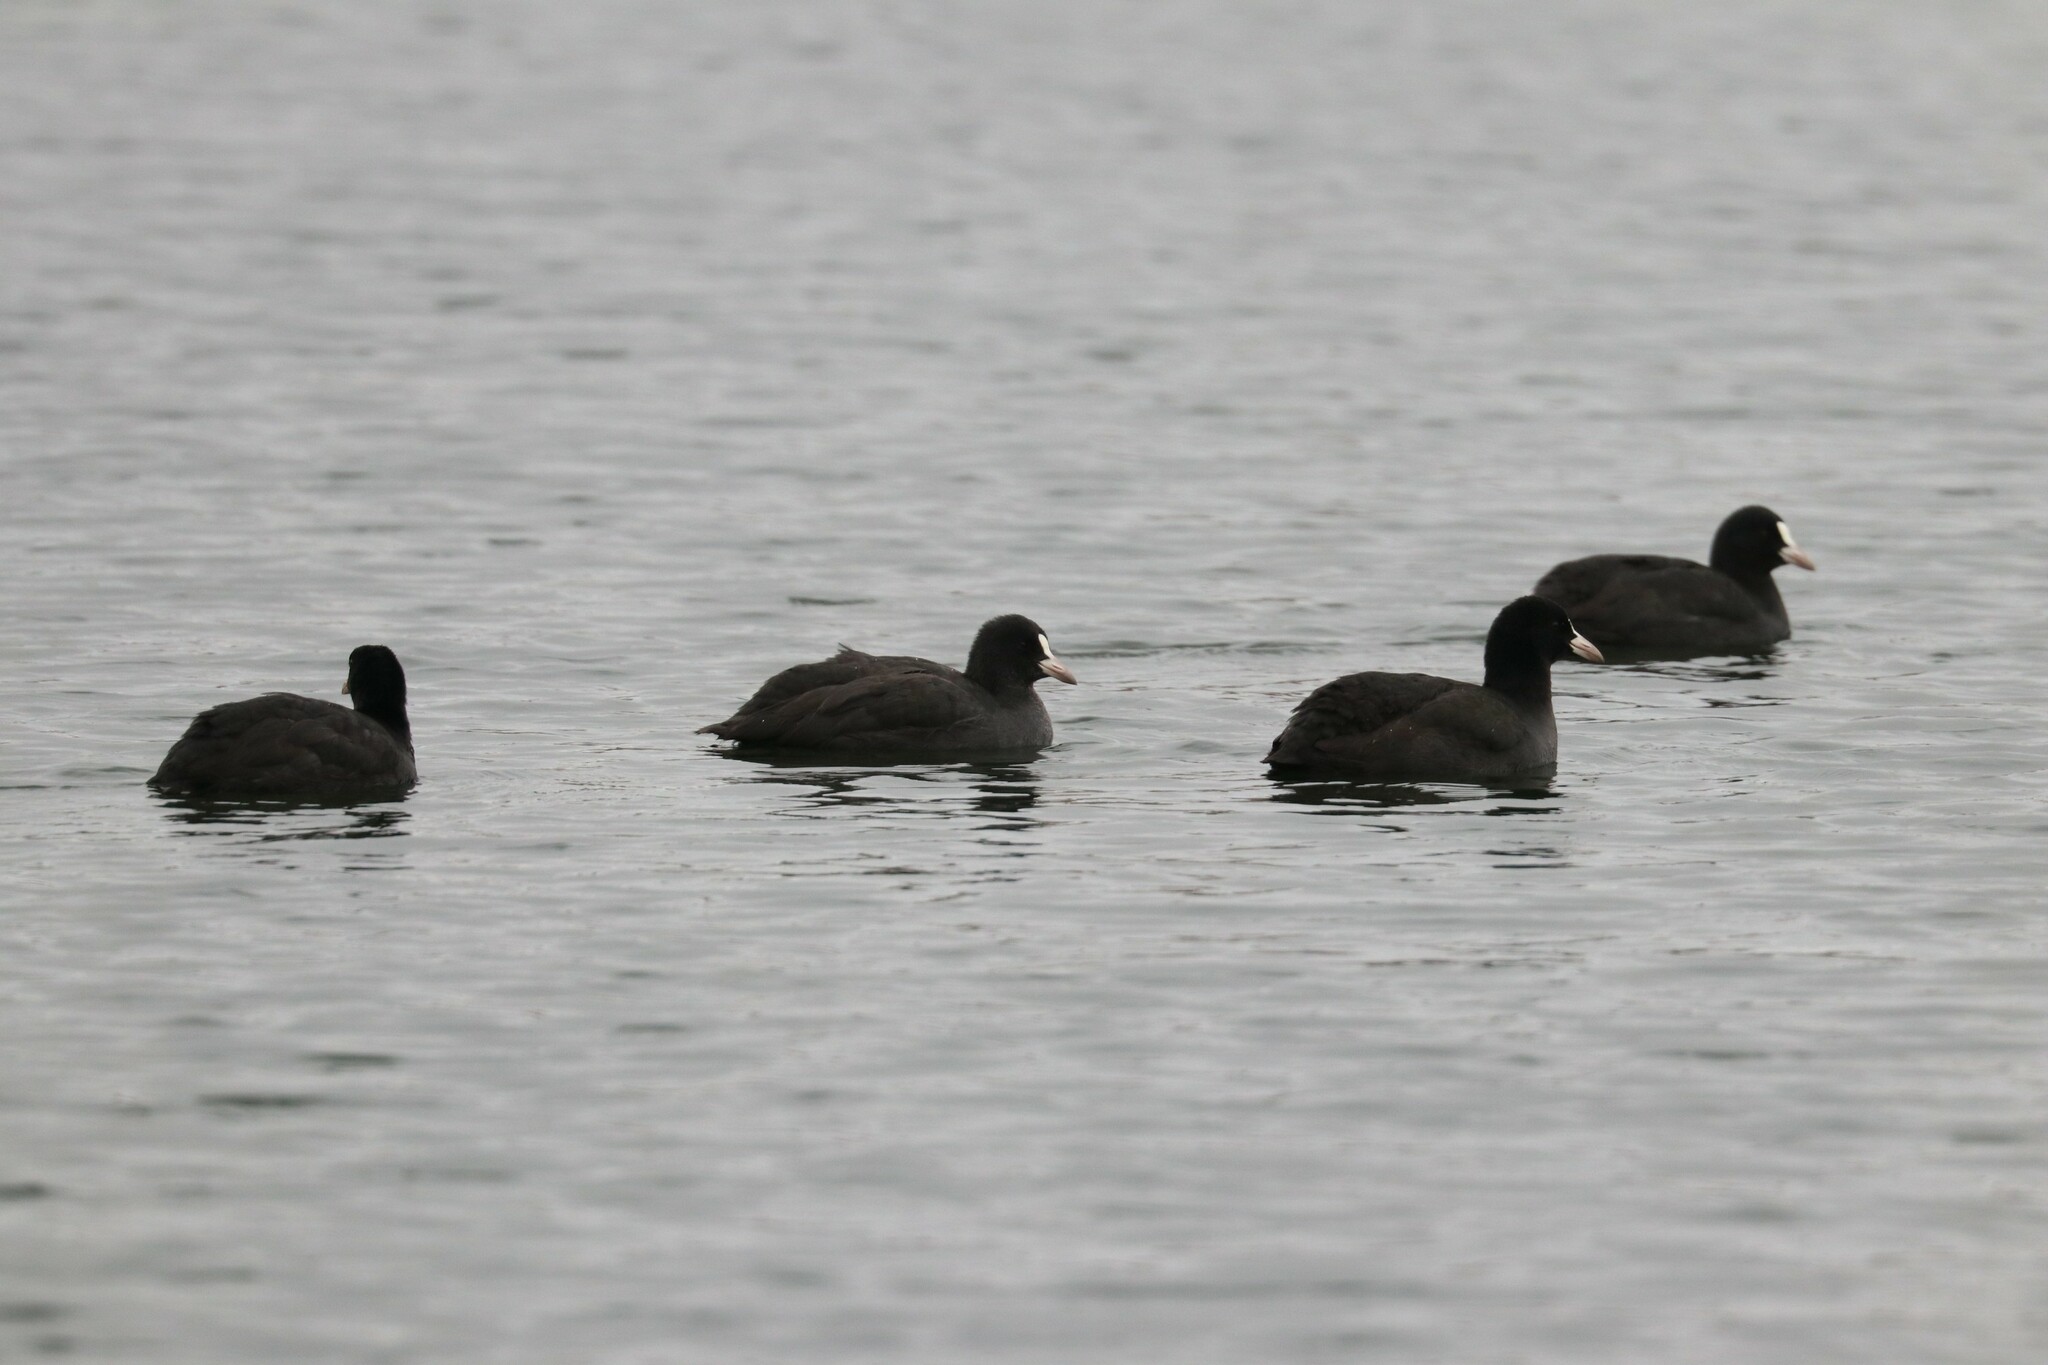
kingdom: Animalia
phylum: Chordata
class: Aves
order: Gruiformes
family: Rallidae
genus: Fulica
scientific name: Fulica atra
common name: Eurasian coot
